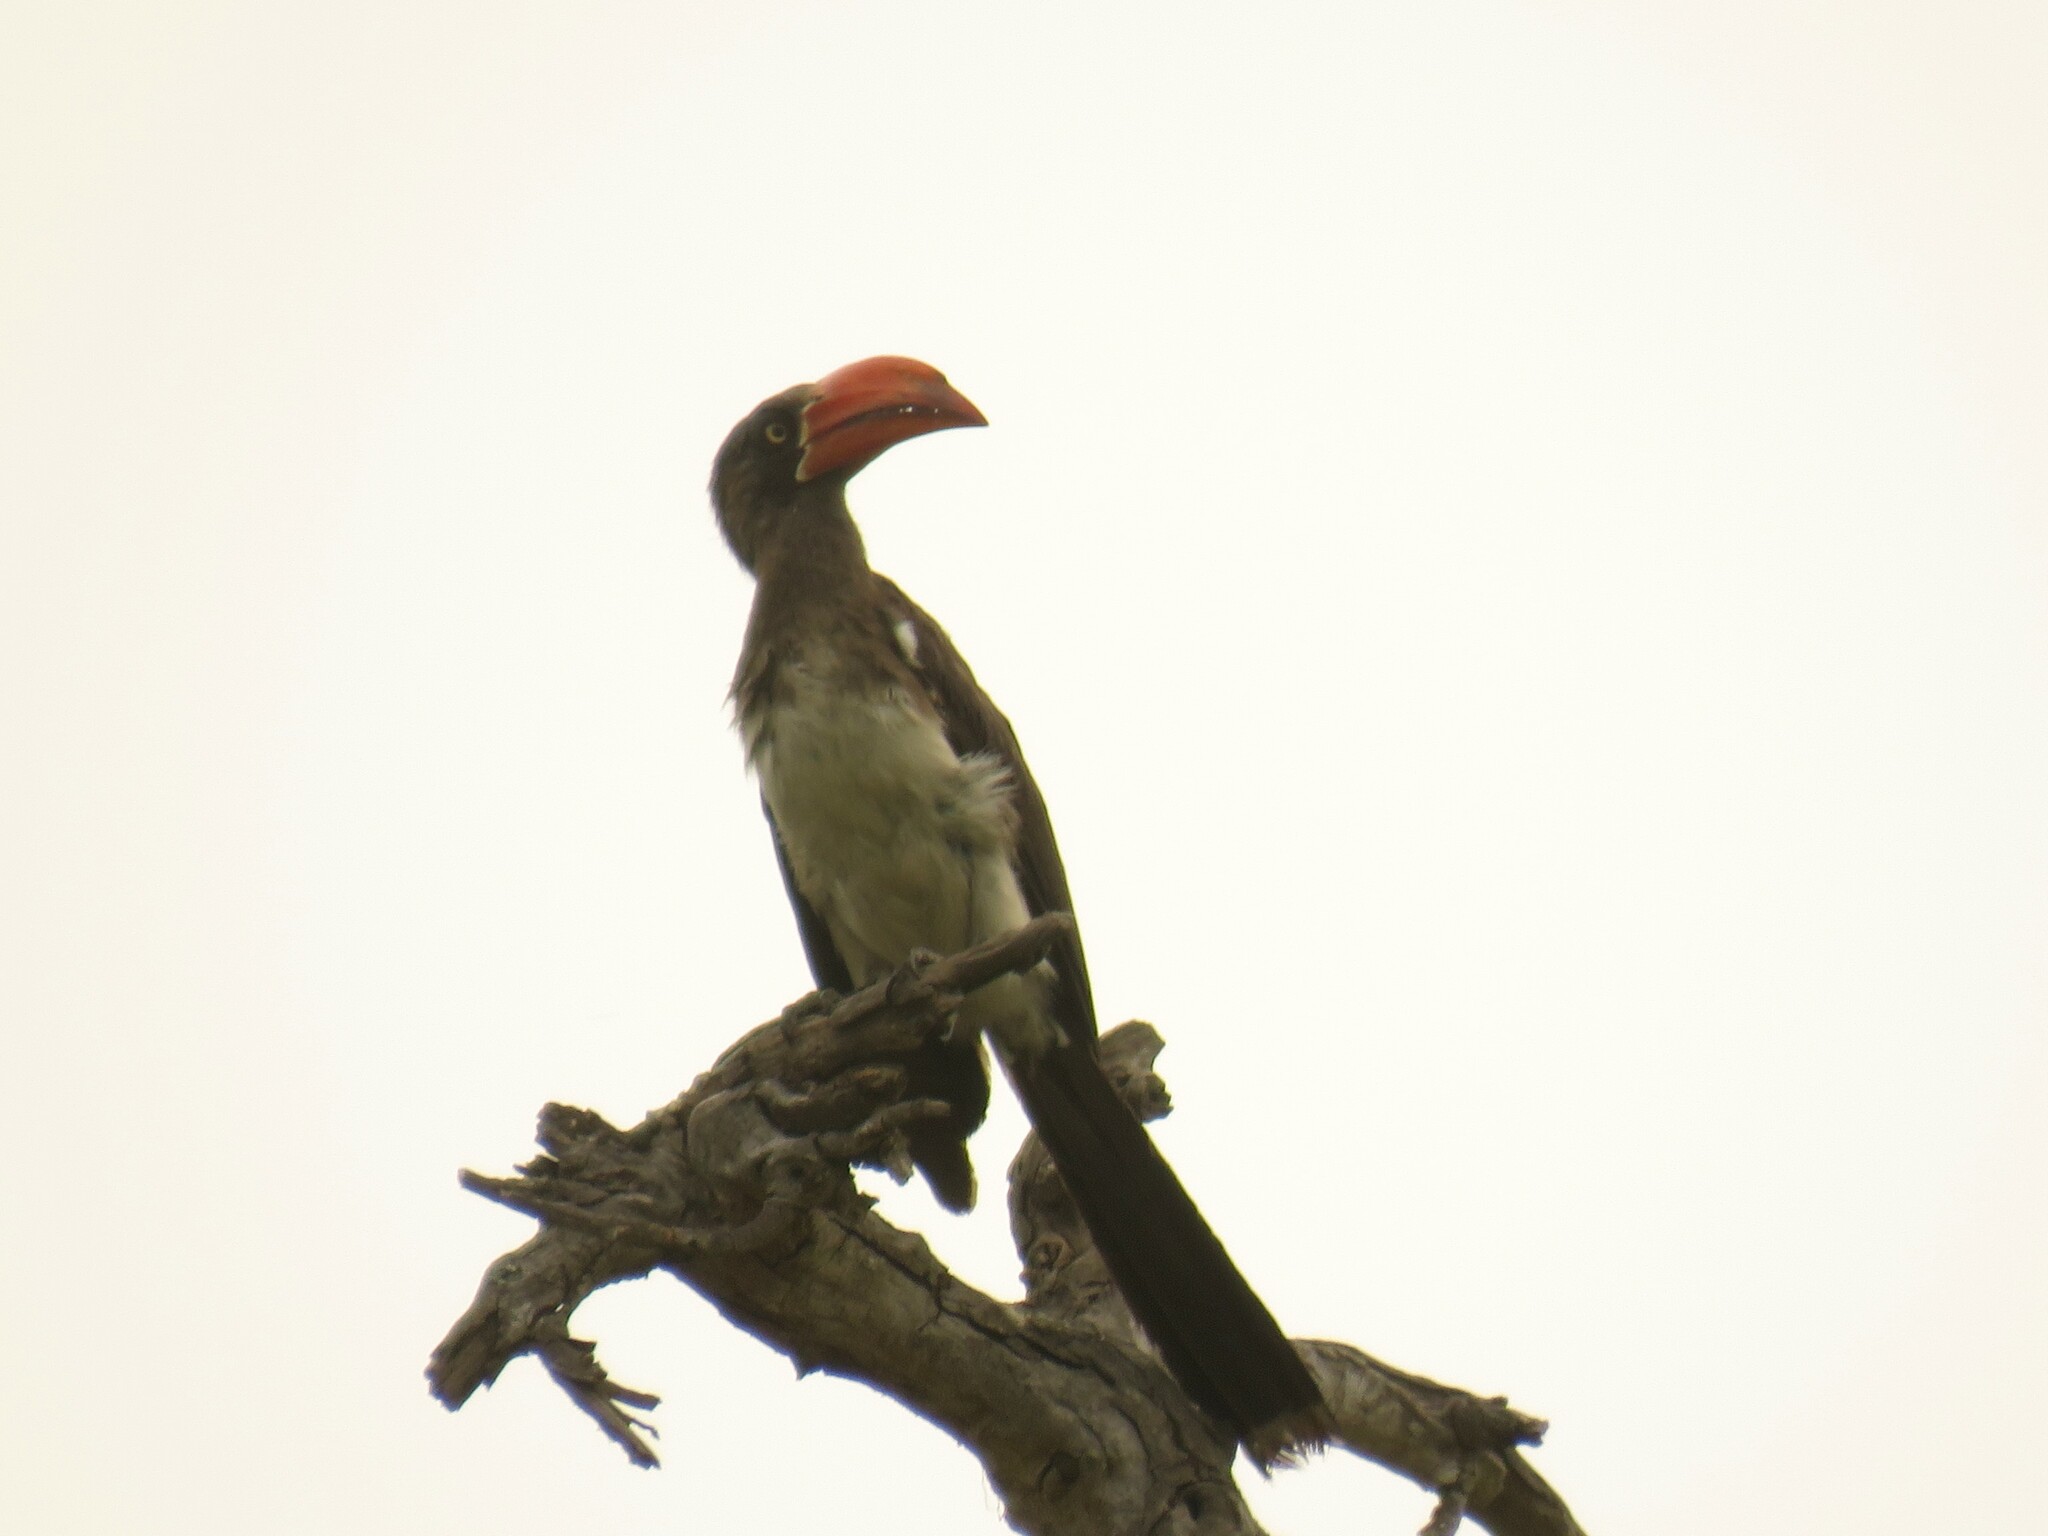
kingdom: Animalia
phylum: Chordata
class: Aves
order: Bucerotiformes
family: Bucerotidae
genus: Lophoceros
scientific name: Lophoceros alboterminatus
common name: Crowned hornbill
